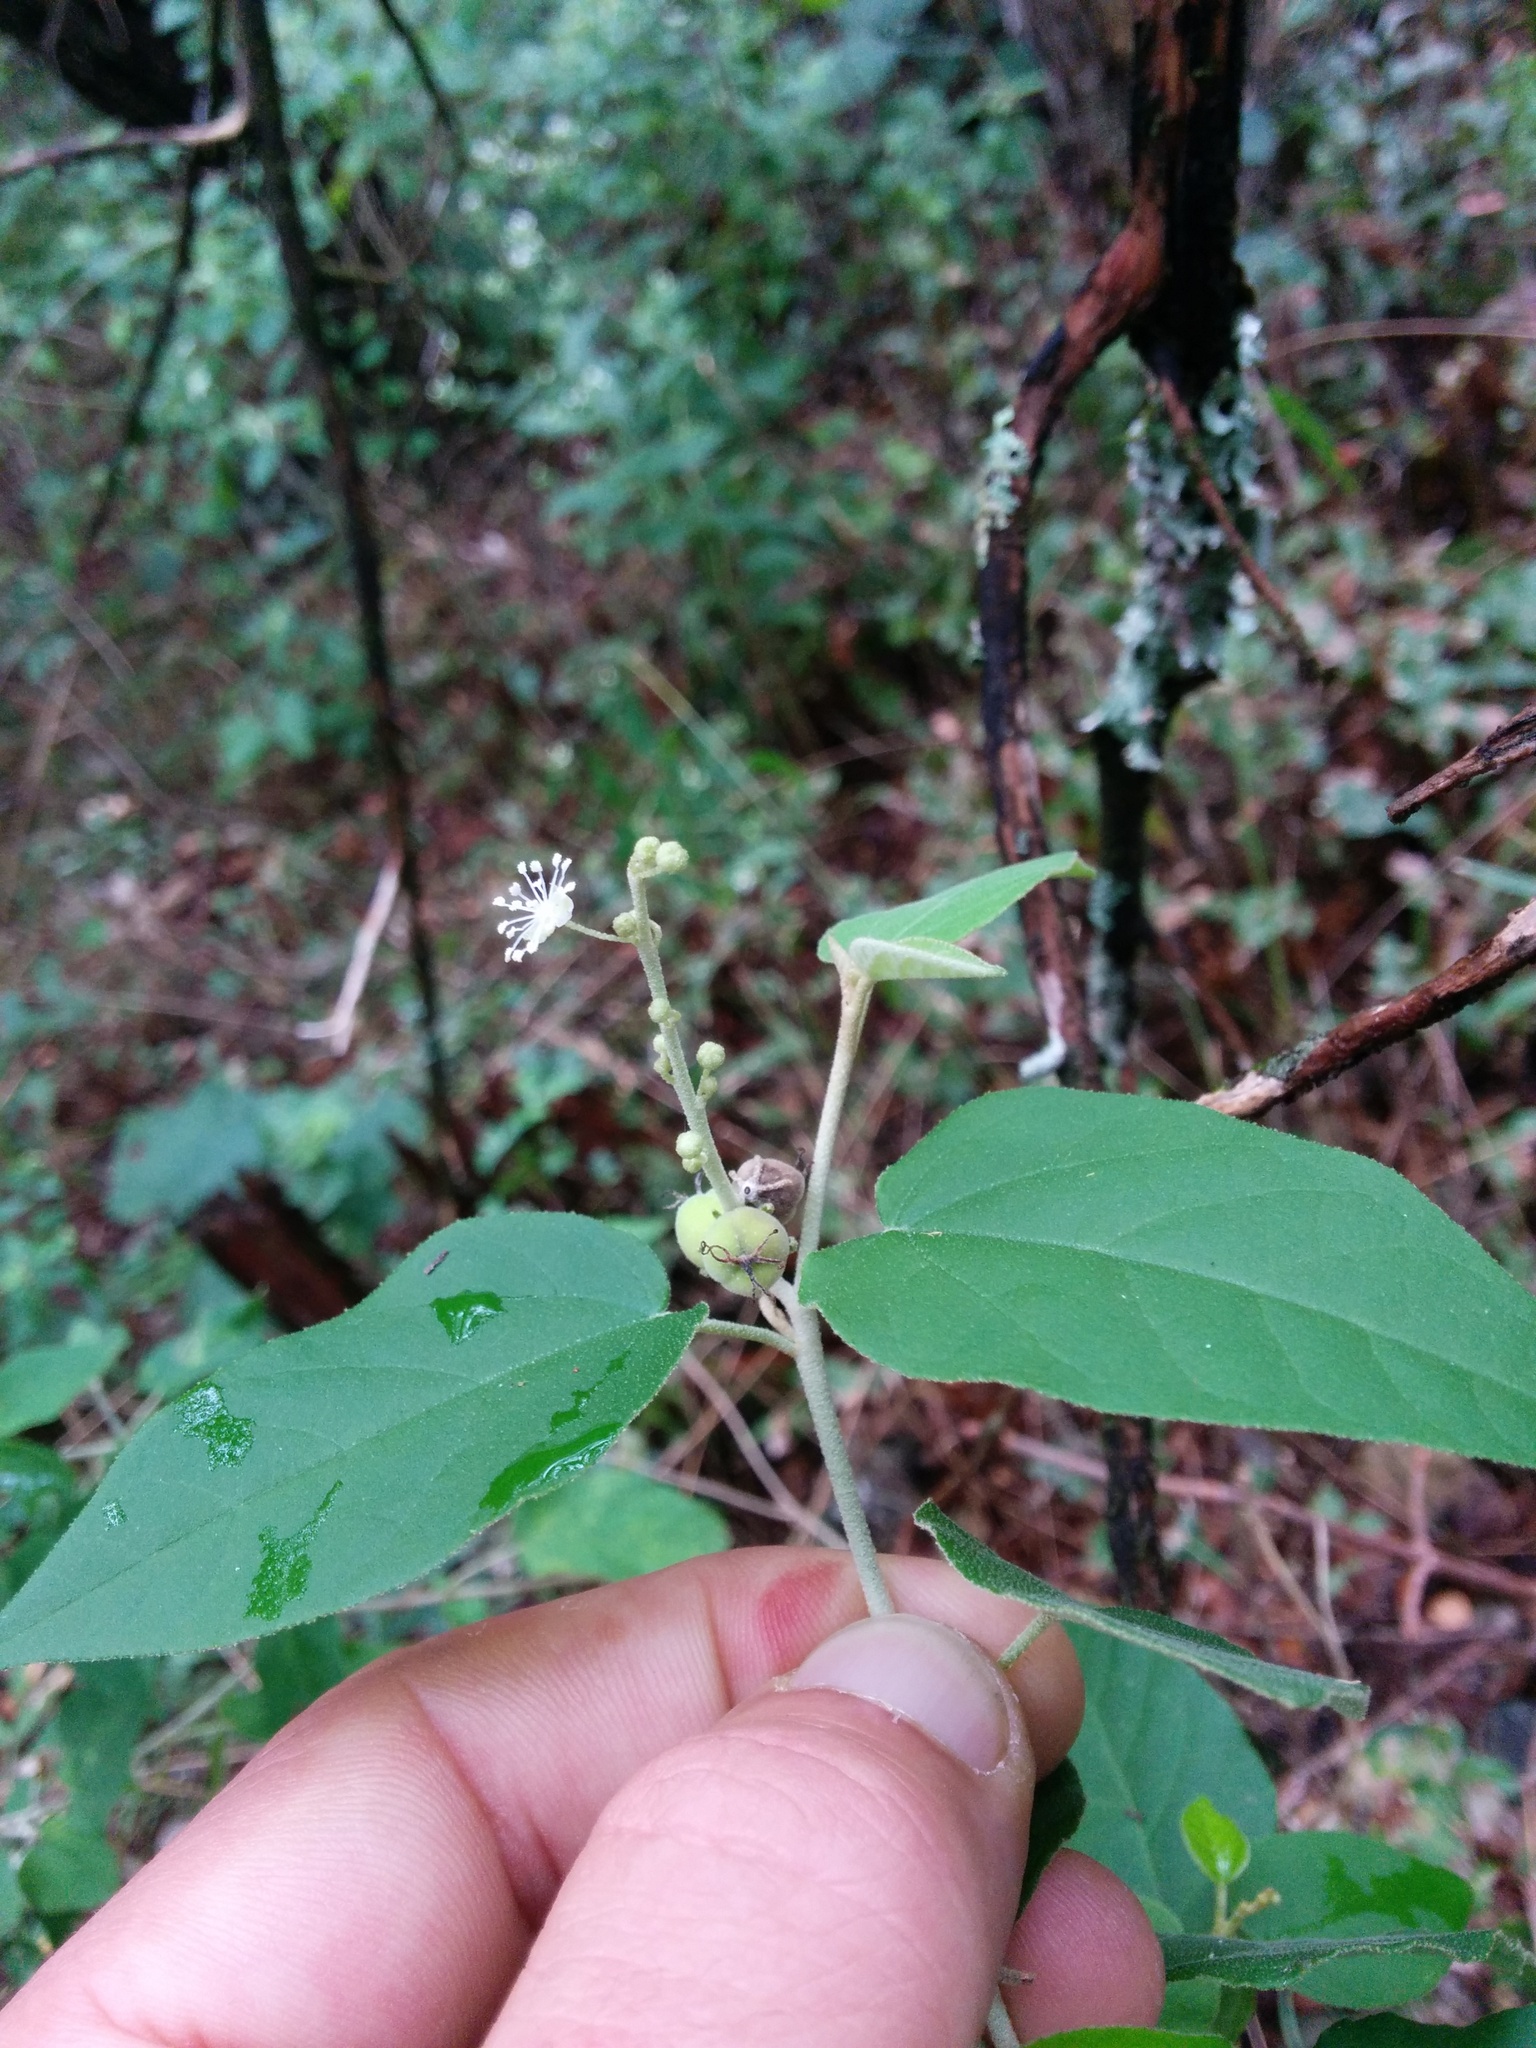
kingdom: Plantae
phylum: Tracheophyta
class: Magnoliopsida
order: Malpighiales
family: Euphorbiaceae
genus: Croton
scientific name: Croton fruticulosus
